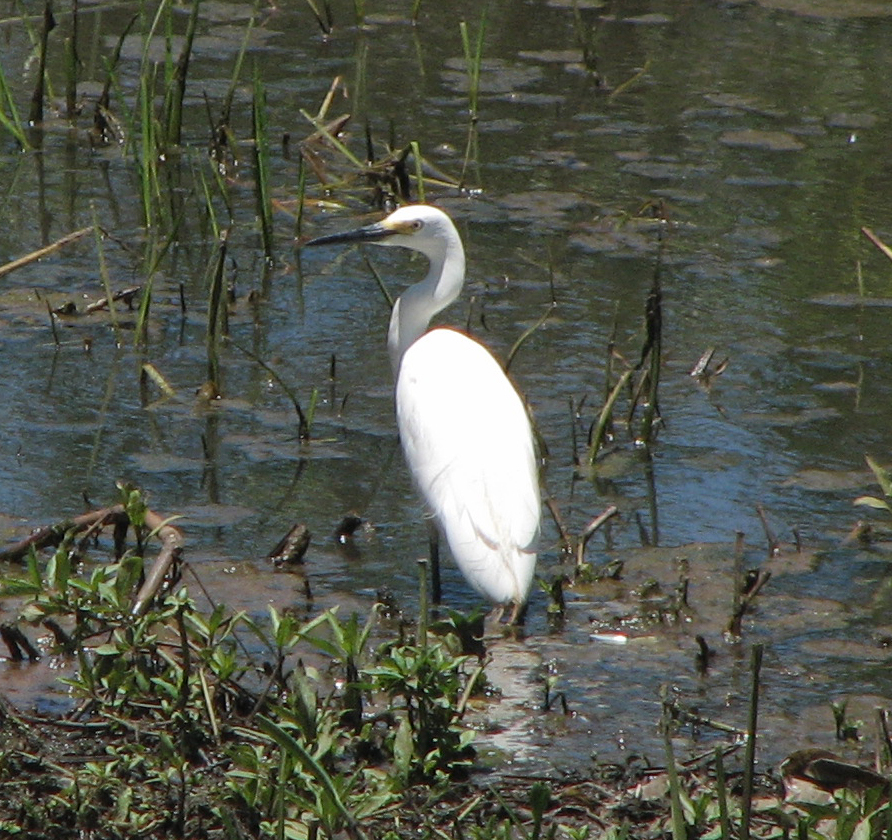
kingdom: Animalia
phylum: Chordata
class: Aves
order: Pelecaniformes
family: Ardeidae
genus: Egretta
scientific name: Egretta garzetta
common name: Little egret
